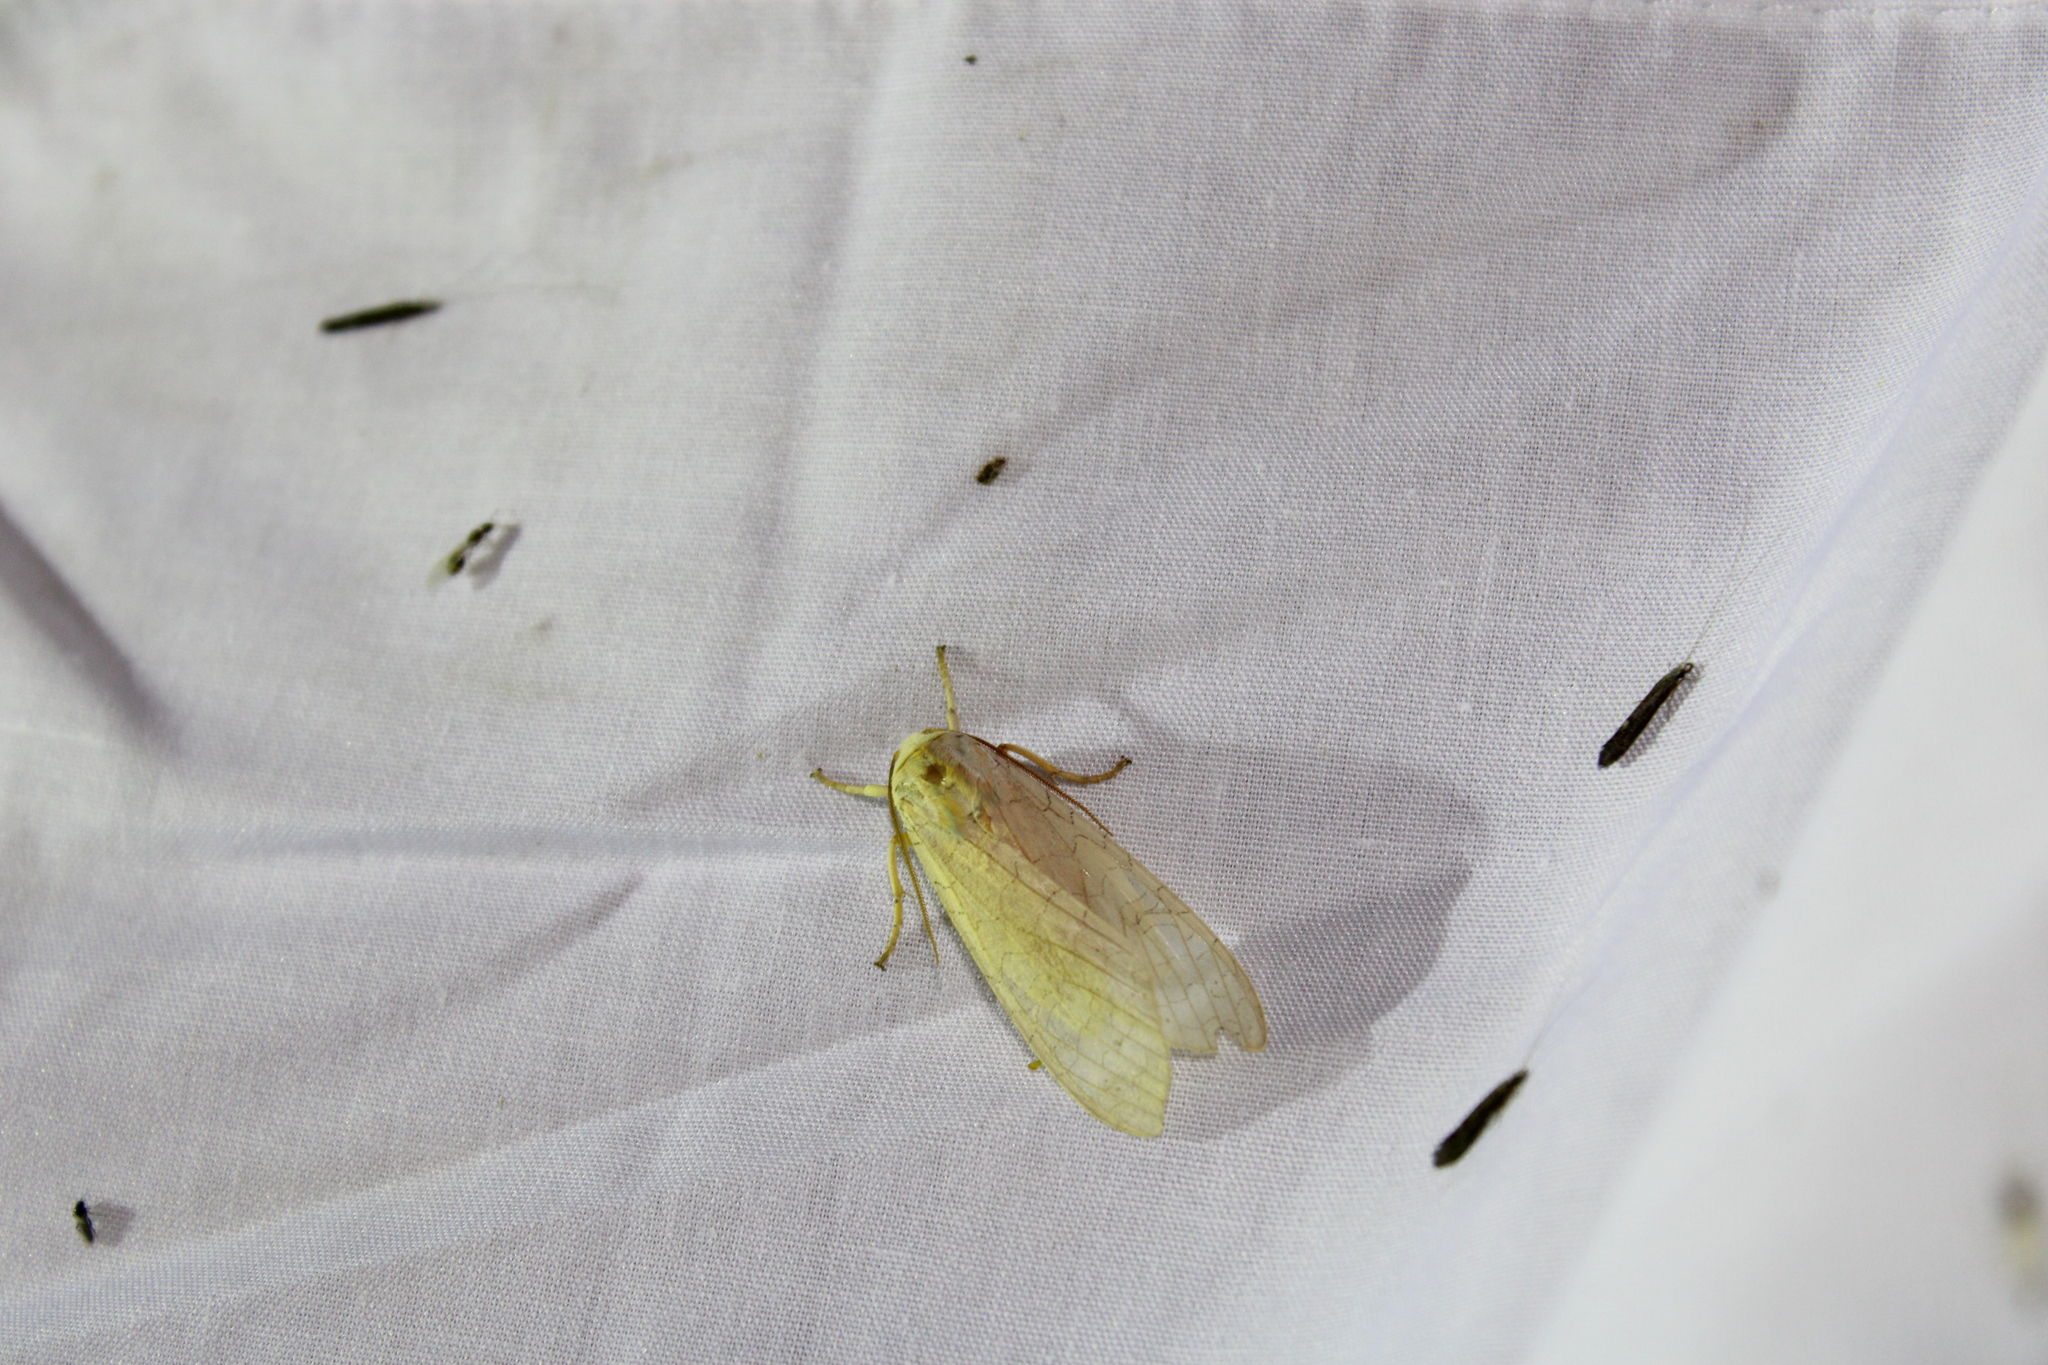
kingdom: Animalia
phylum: Arthropoda
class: Insecta
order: Lepidoptera
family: Erebidae
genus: Halysidota
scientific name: Halysidota
